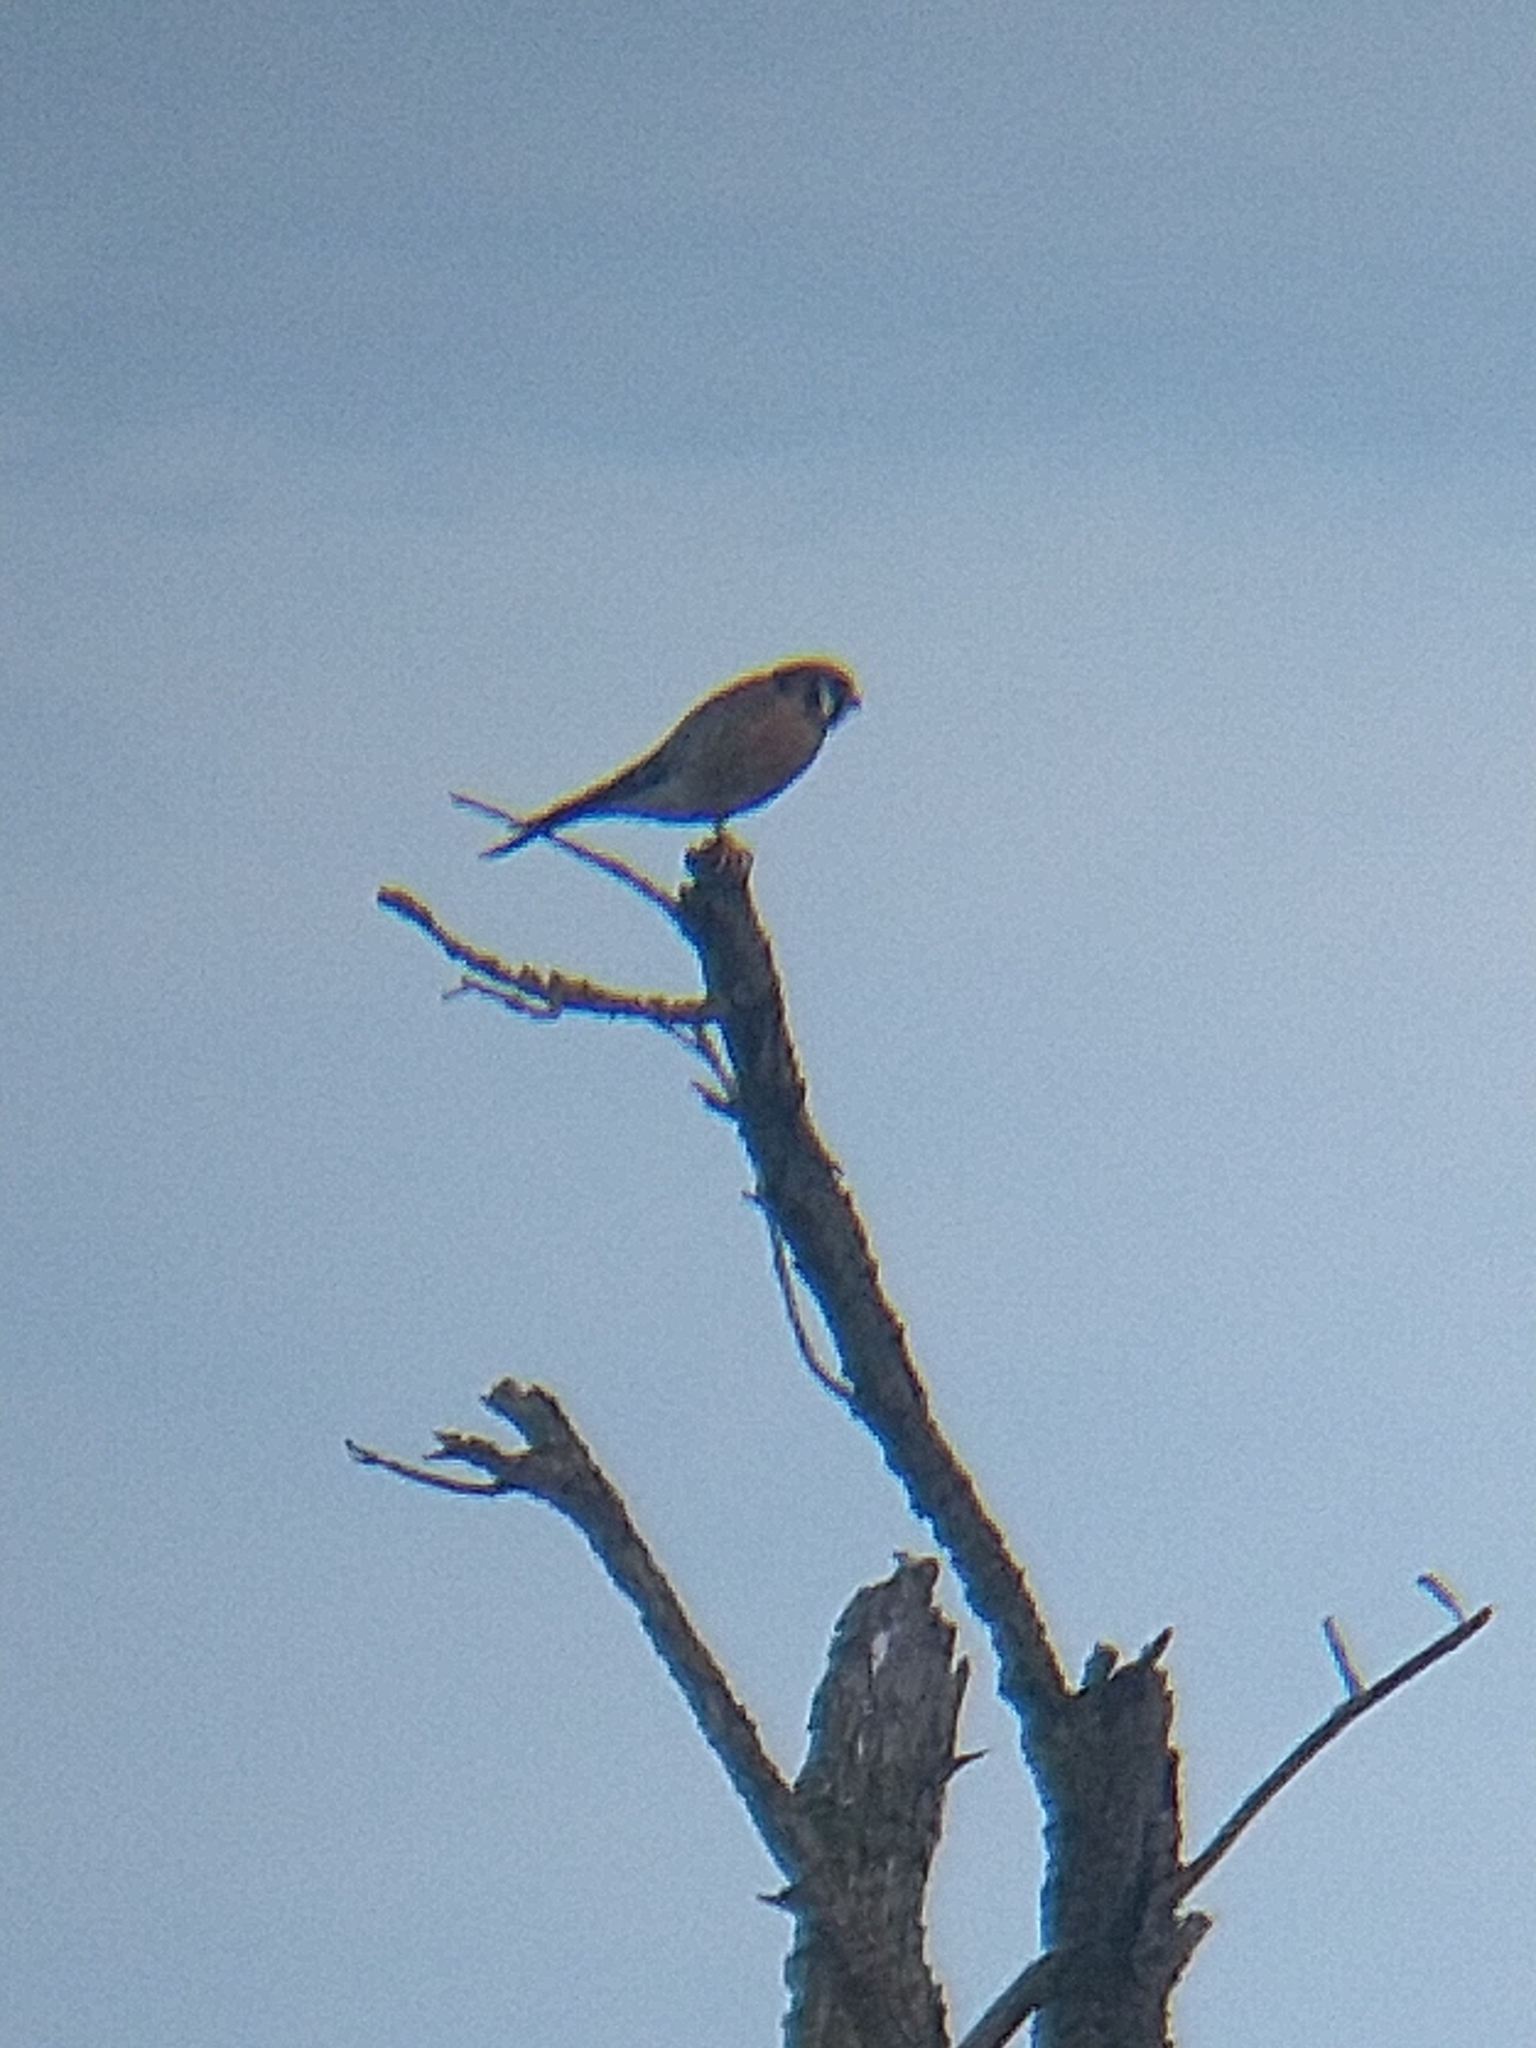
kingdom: Animalia
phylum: Chordata
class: Aves
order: Falconiformes
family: Falconidae
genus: Falco
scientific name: Falco sparverius
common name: American kestrel
